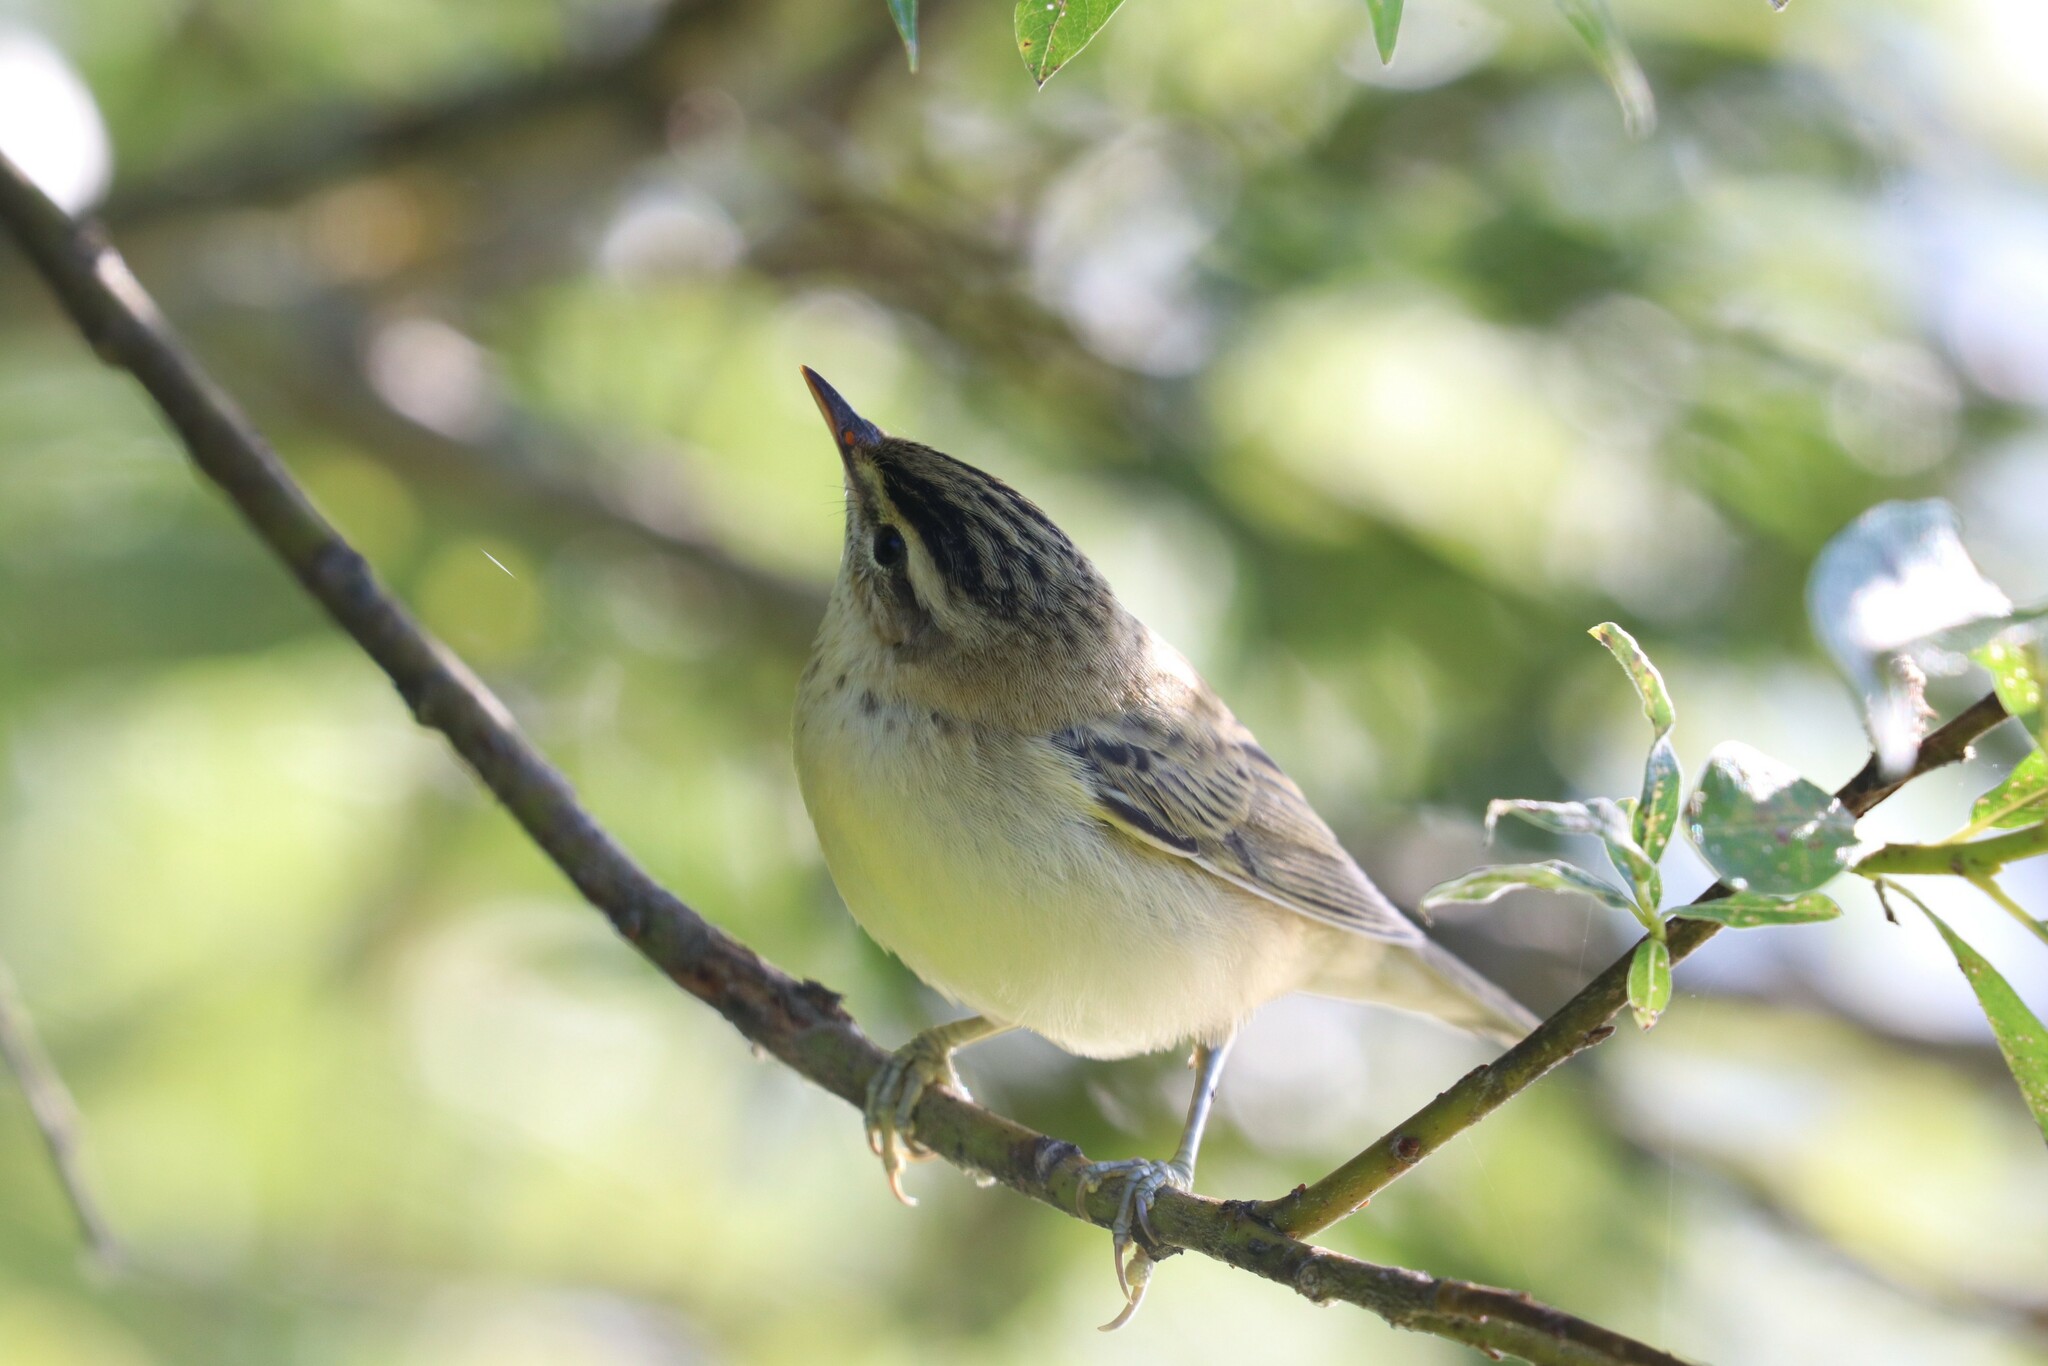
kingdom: Animalia
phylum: Chordata
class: Aves
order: Passeriformes
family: Acrocephalidae
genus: Acrocephalus
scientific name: Acrocephalus schoenobaenus
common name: Sedge warbler
